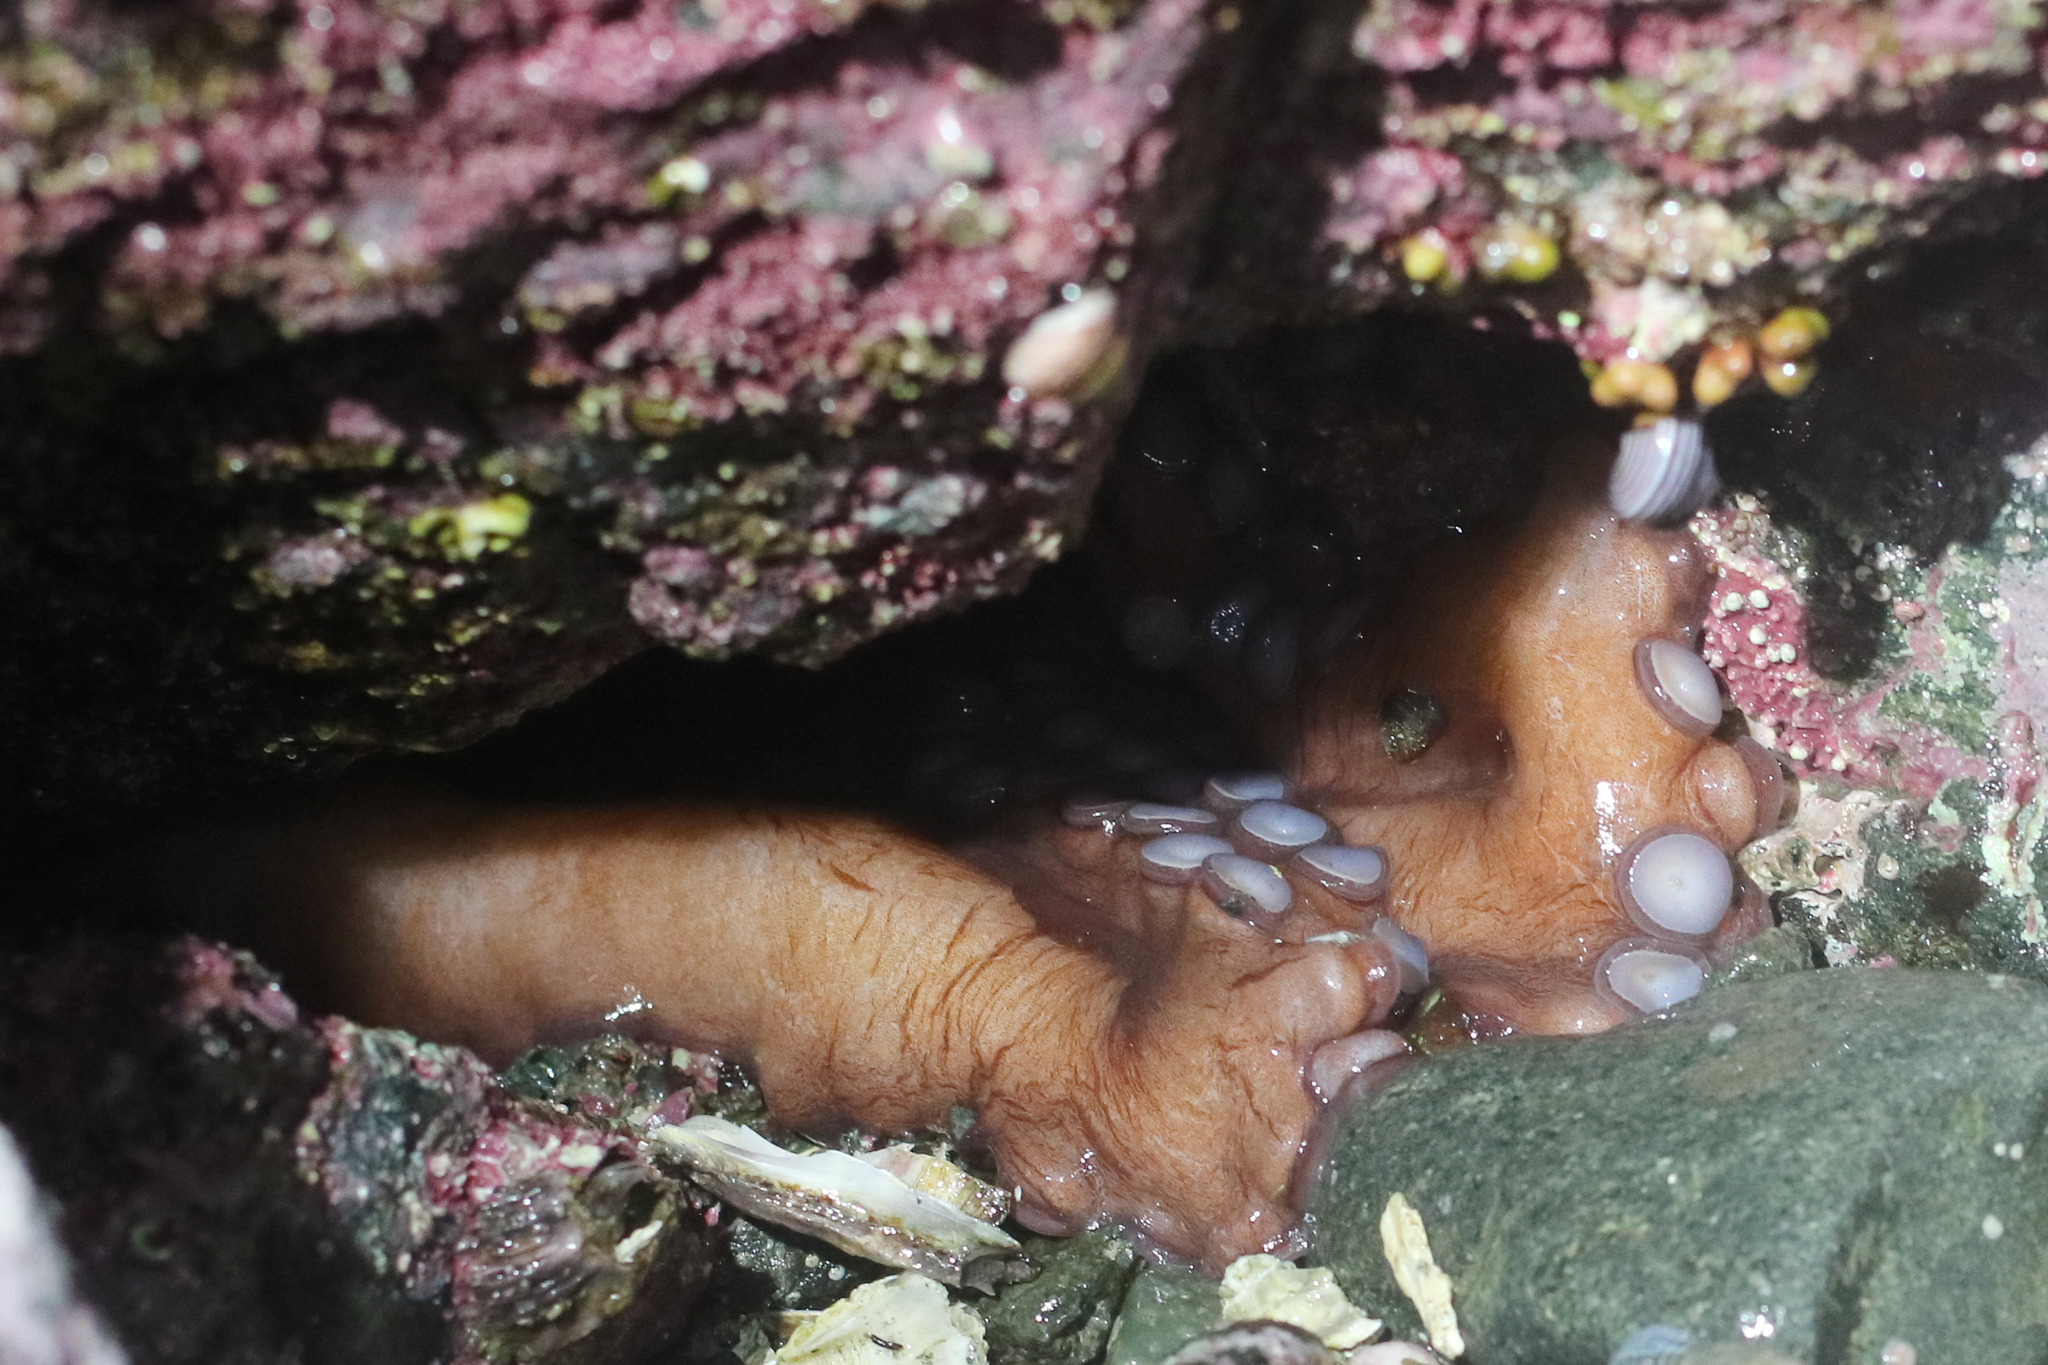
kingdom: Animalia
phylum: Mollusca
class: Cephalopoda
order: Octopoda
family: Enteroctopodidae
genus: Enteroctopus
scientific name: Enteroctopus dofleini
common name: Giant north pacific octopus
